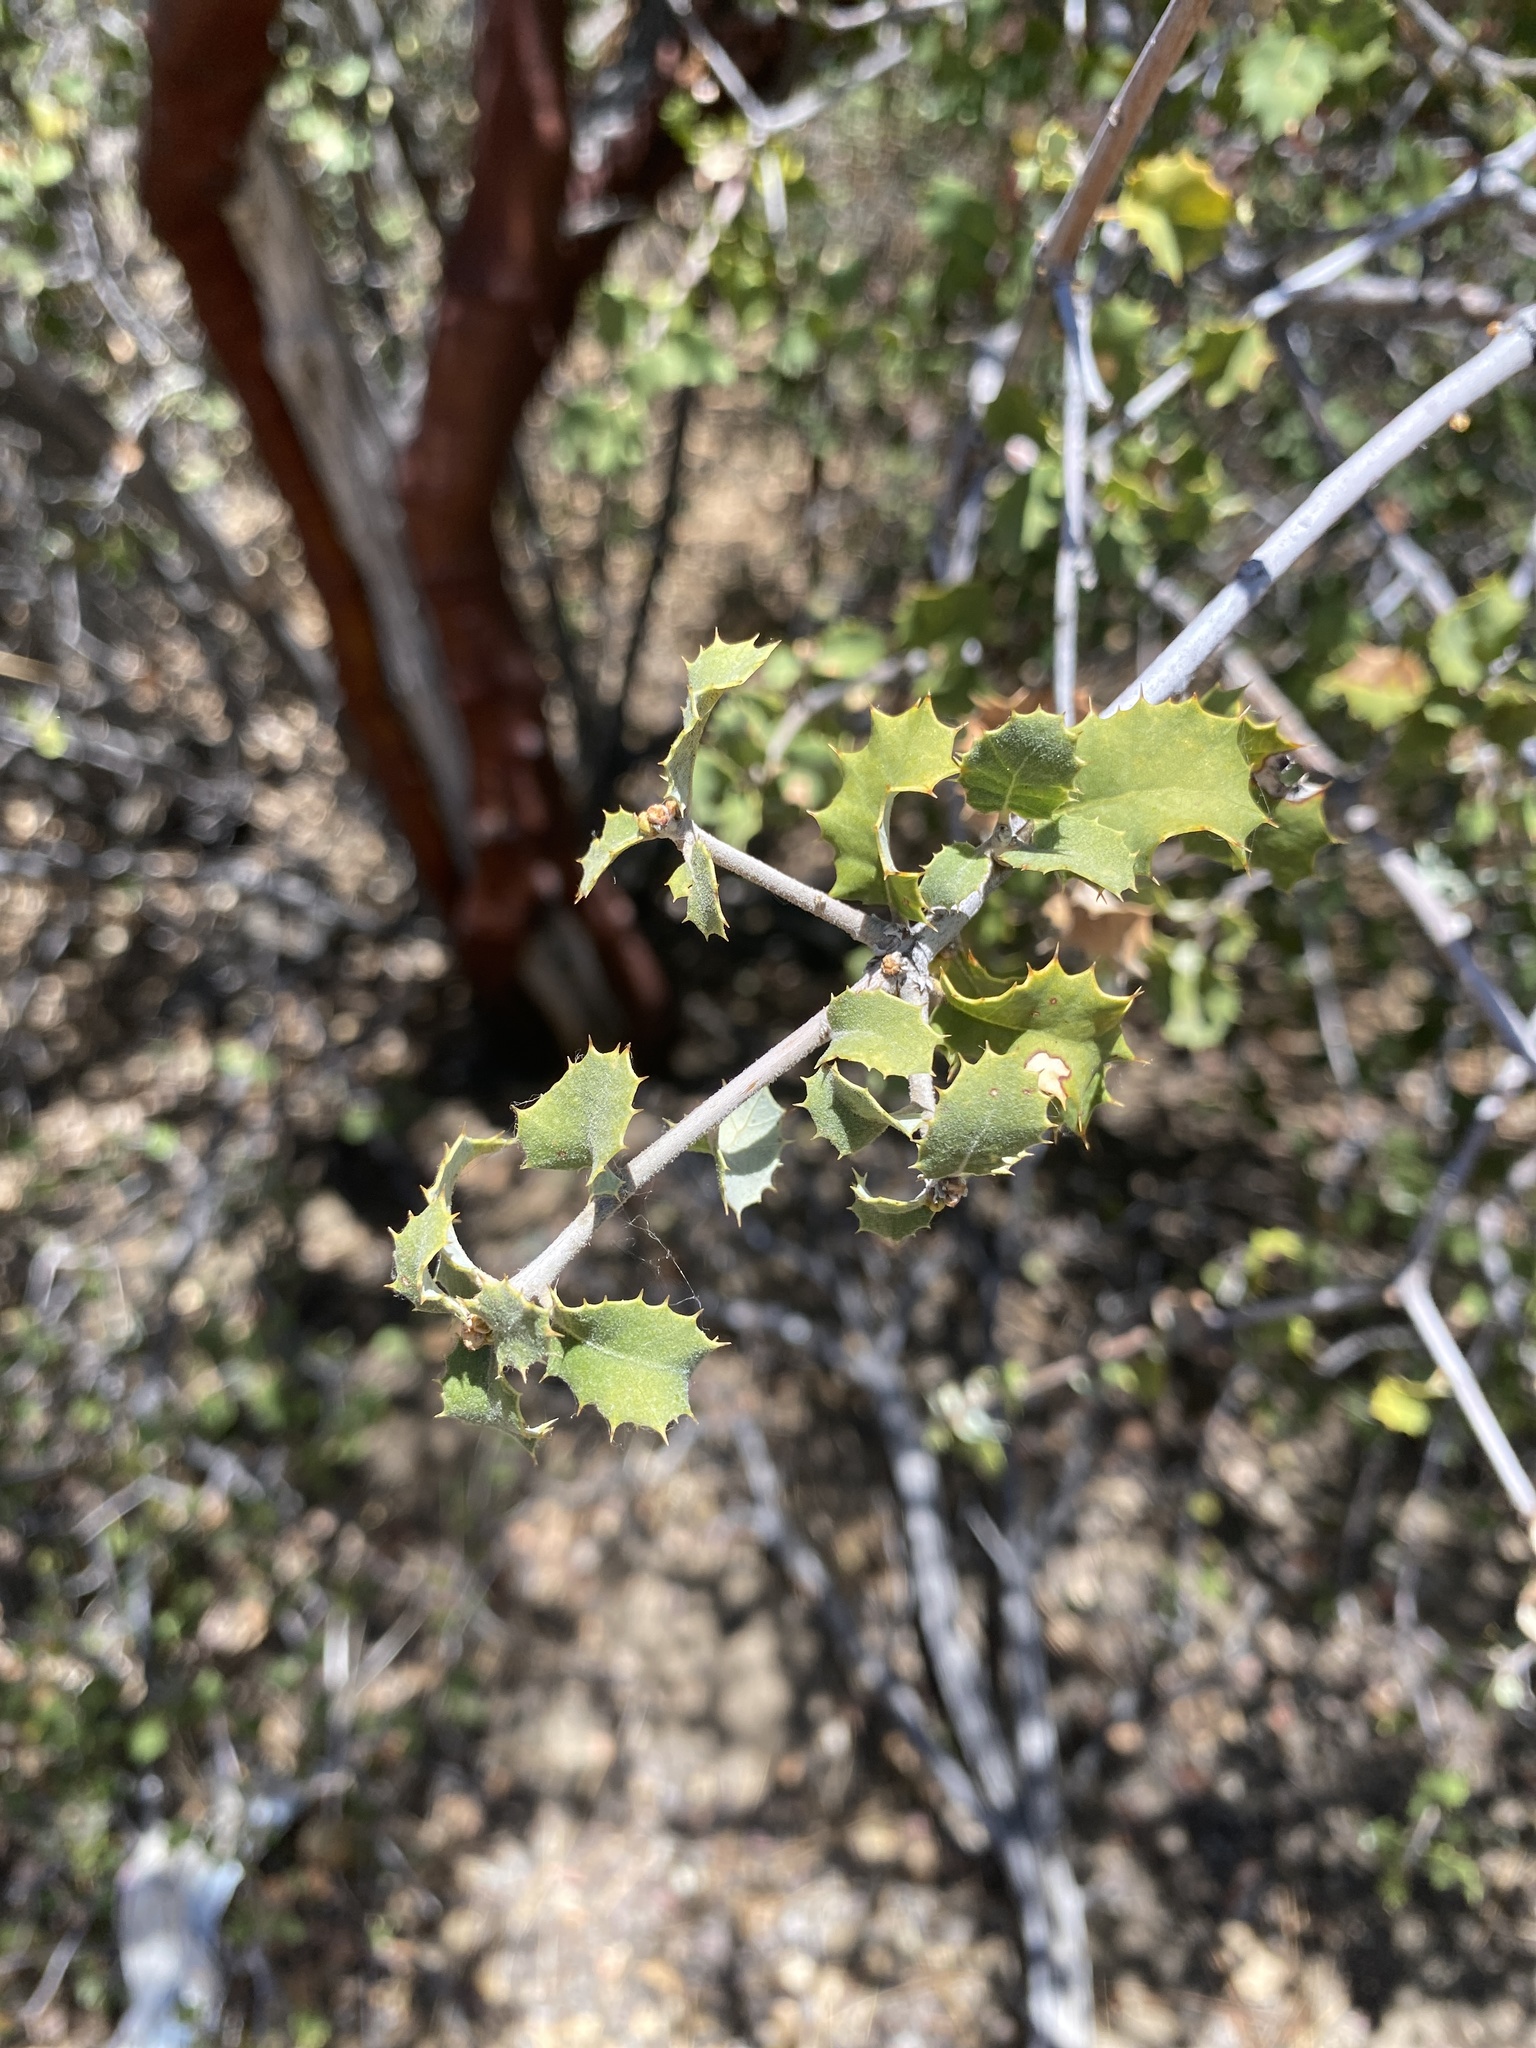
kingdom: Plantae
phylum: Tracheophyta
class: Magnoliopsida
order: Fagales
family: Fagaceae
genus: Quercus
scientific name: Quercus palmeri
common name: Dunn oak
